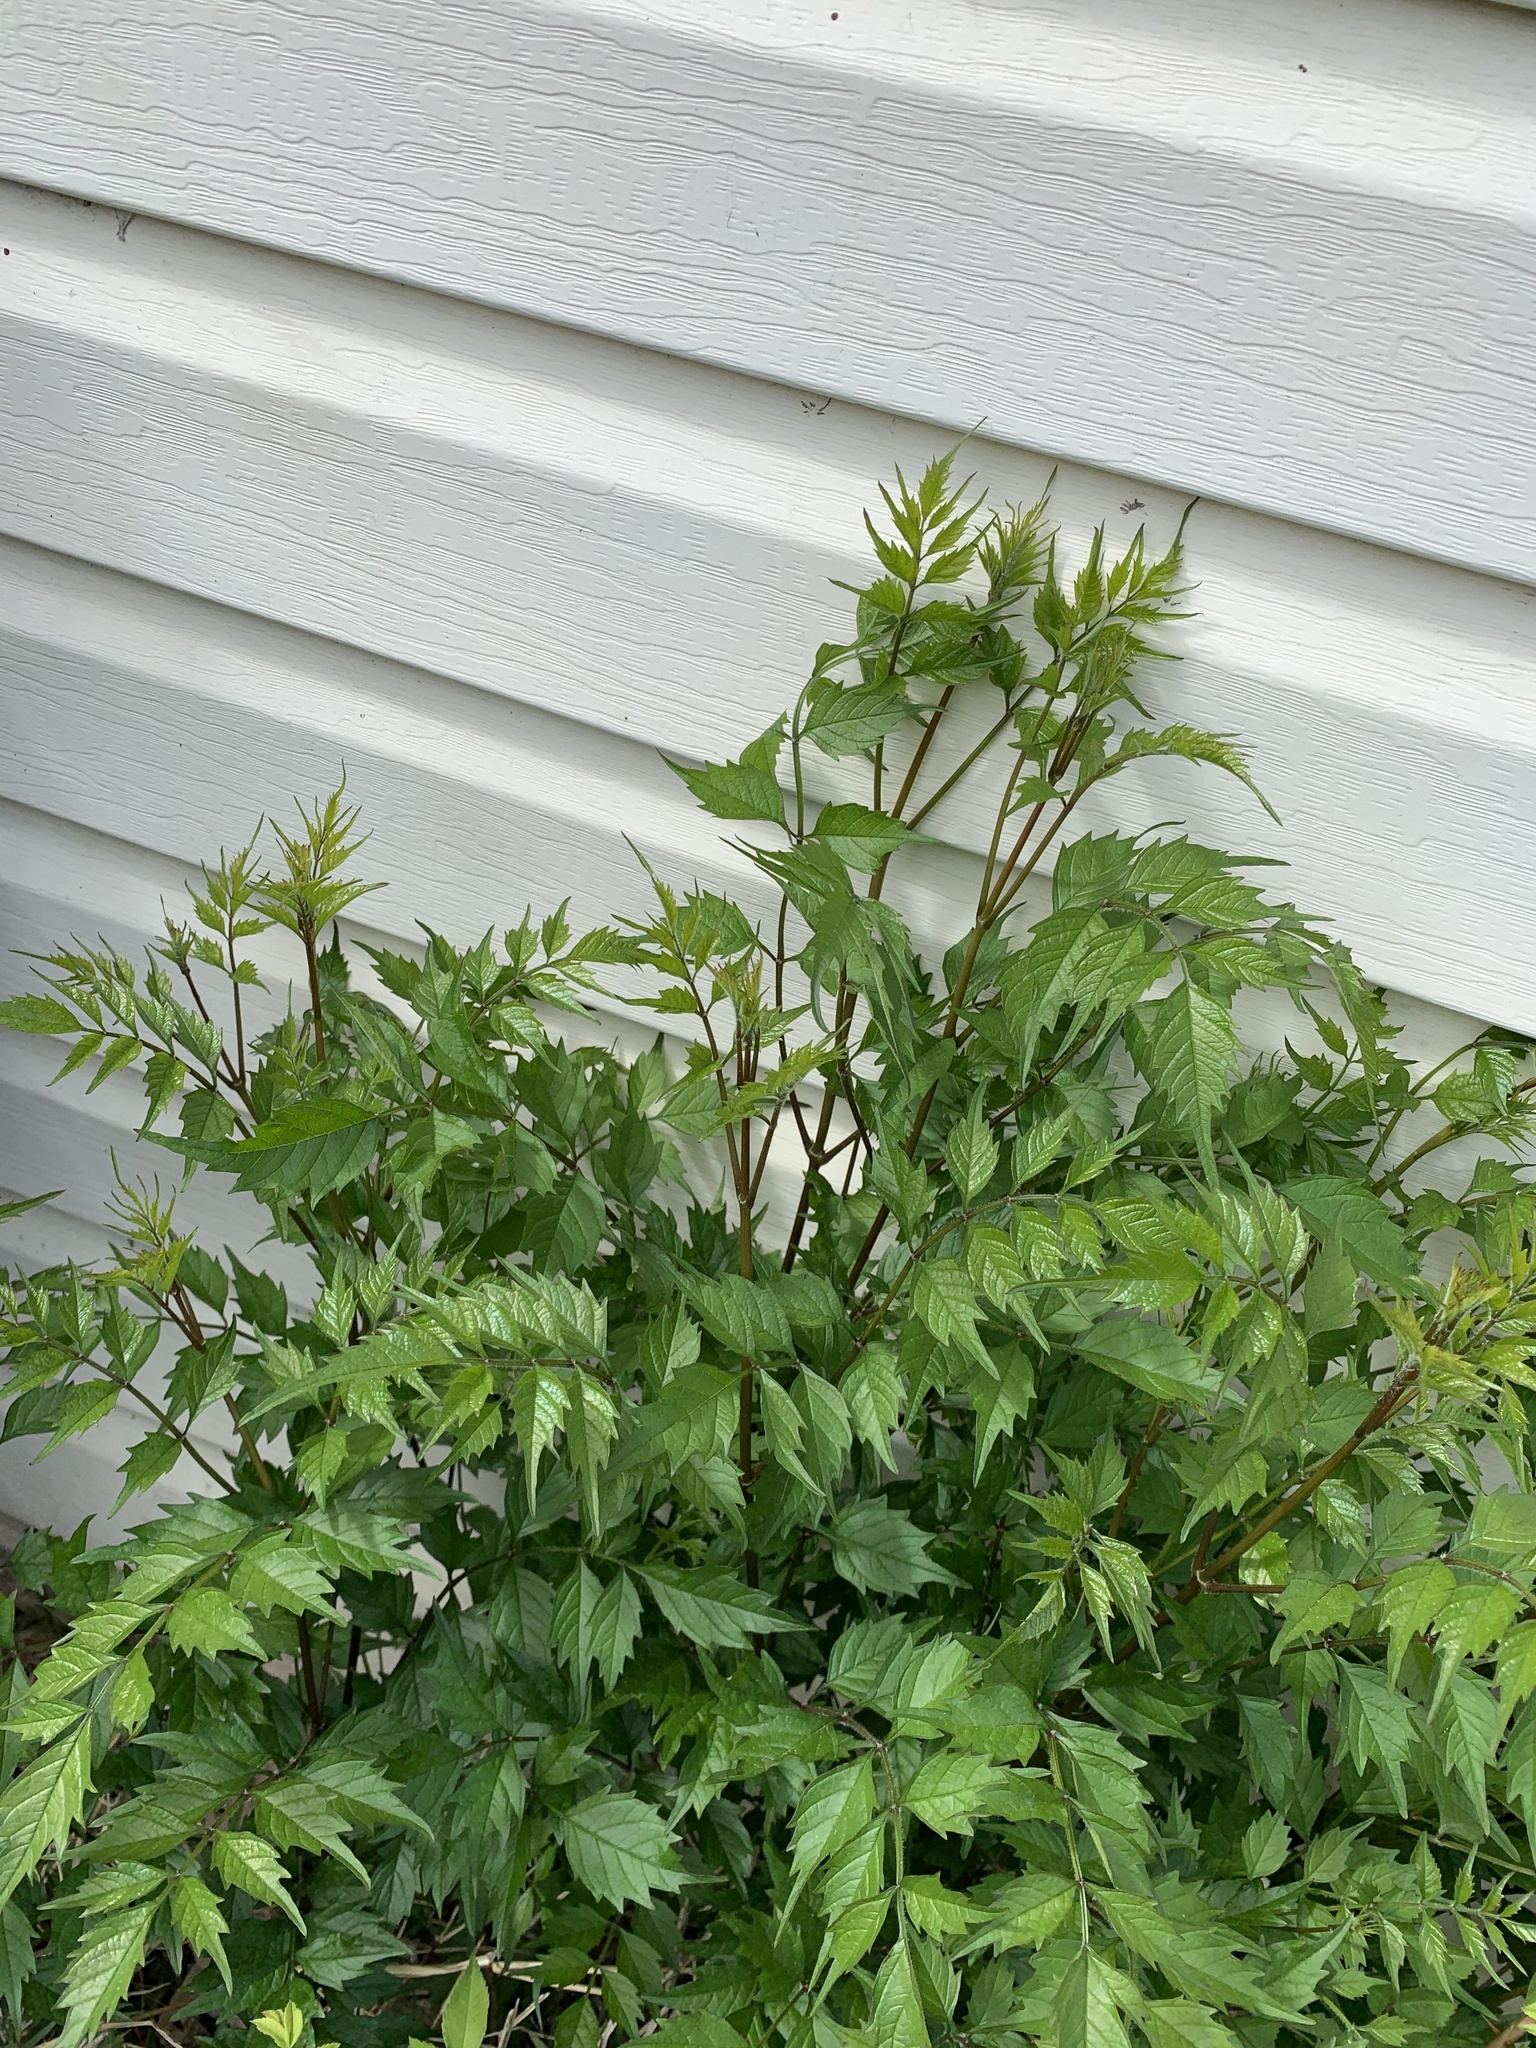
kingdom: Plantae
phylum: Tracheophyta
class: Magnoliopsida
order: Lamiales
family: Bignoniaceae
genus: Campsis
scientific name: Campsis radicans
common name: Trumpet-creeper
